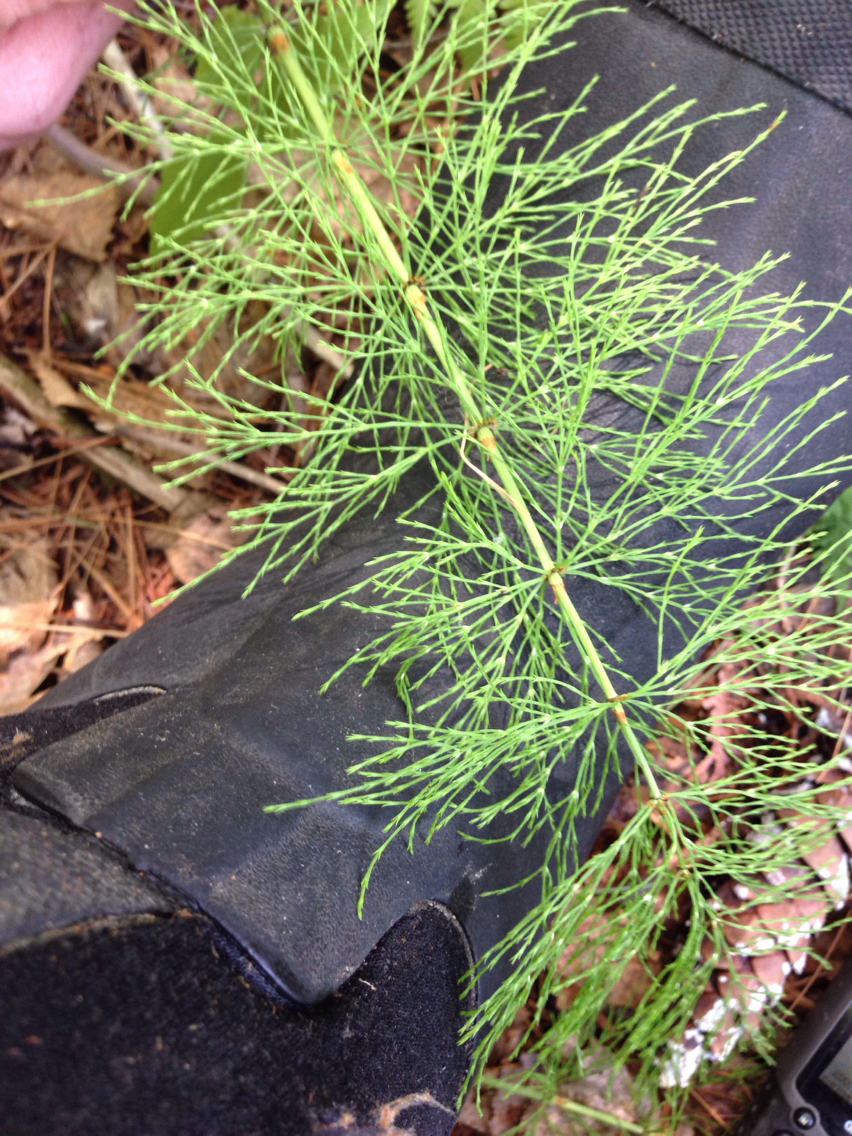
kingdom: Plantae
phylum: Tracheophyta
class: Polypodiopsida
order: Equisetales
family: Equisetaceae
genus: Equisetum
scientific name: Equisetum sylvaticum
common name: Wood horsetail
